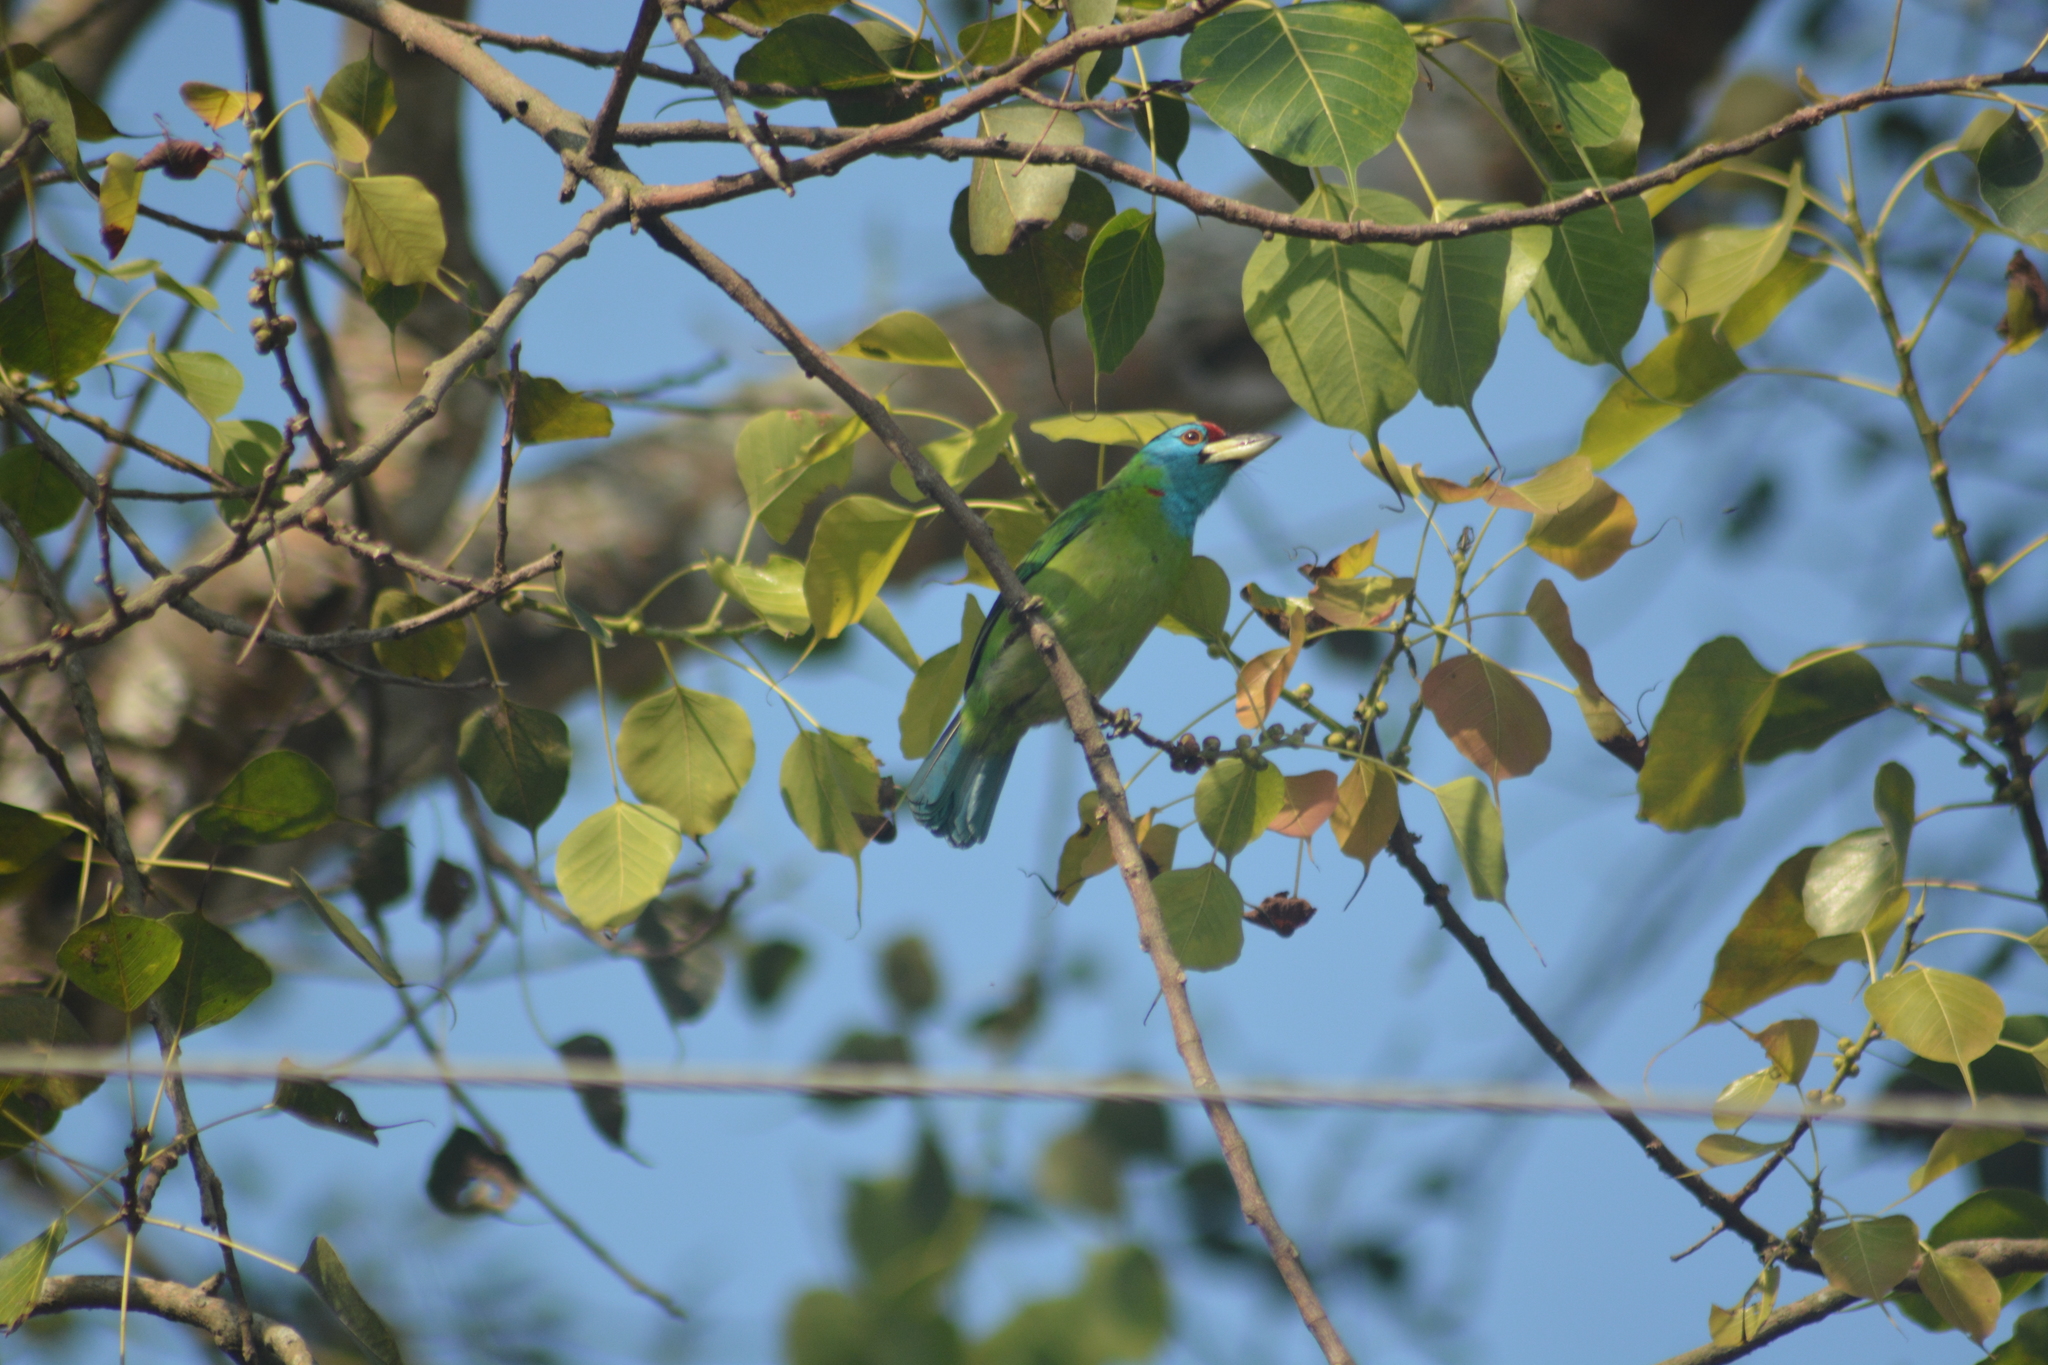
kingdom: Animalia
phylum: Chordata
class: Aves
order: Piciformes
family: Megalaimidae
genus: Psilopogon
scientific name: Psilopogon asiaticus
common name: Blue-throated barbet
